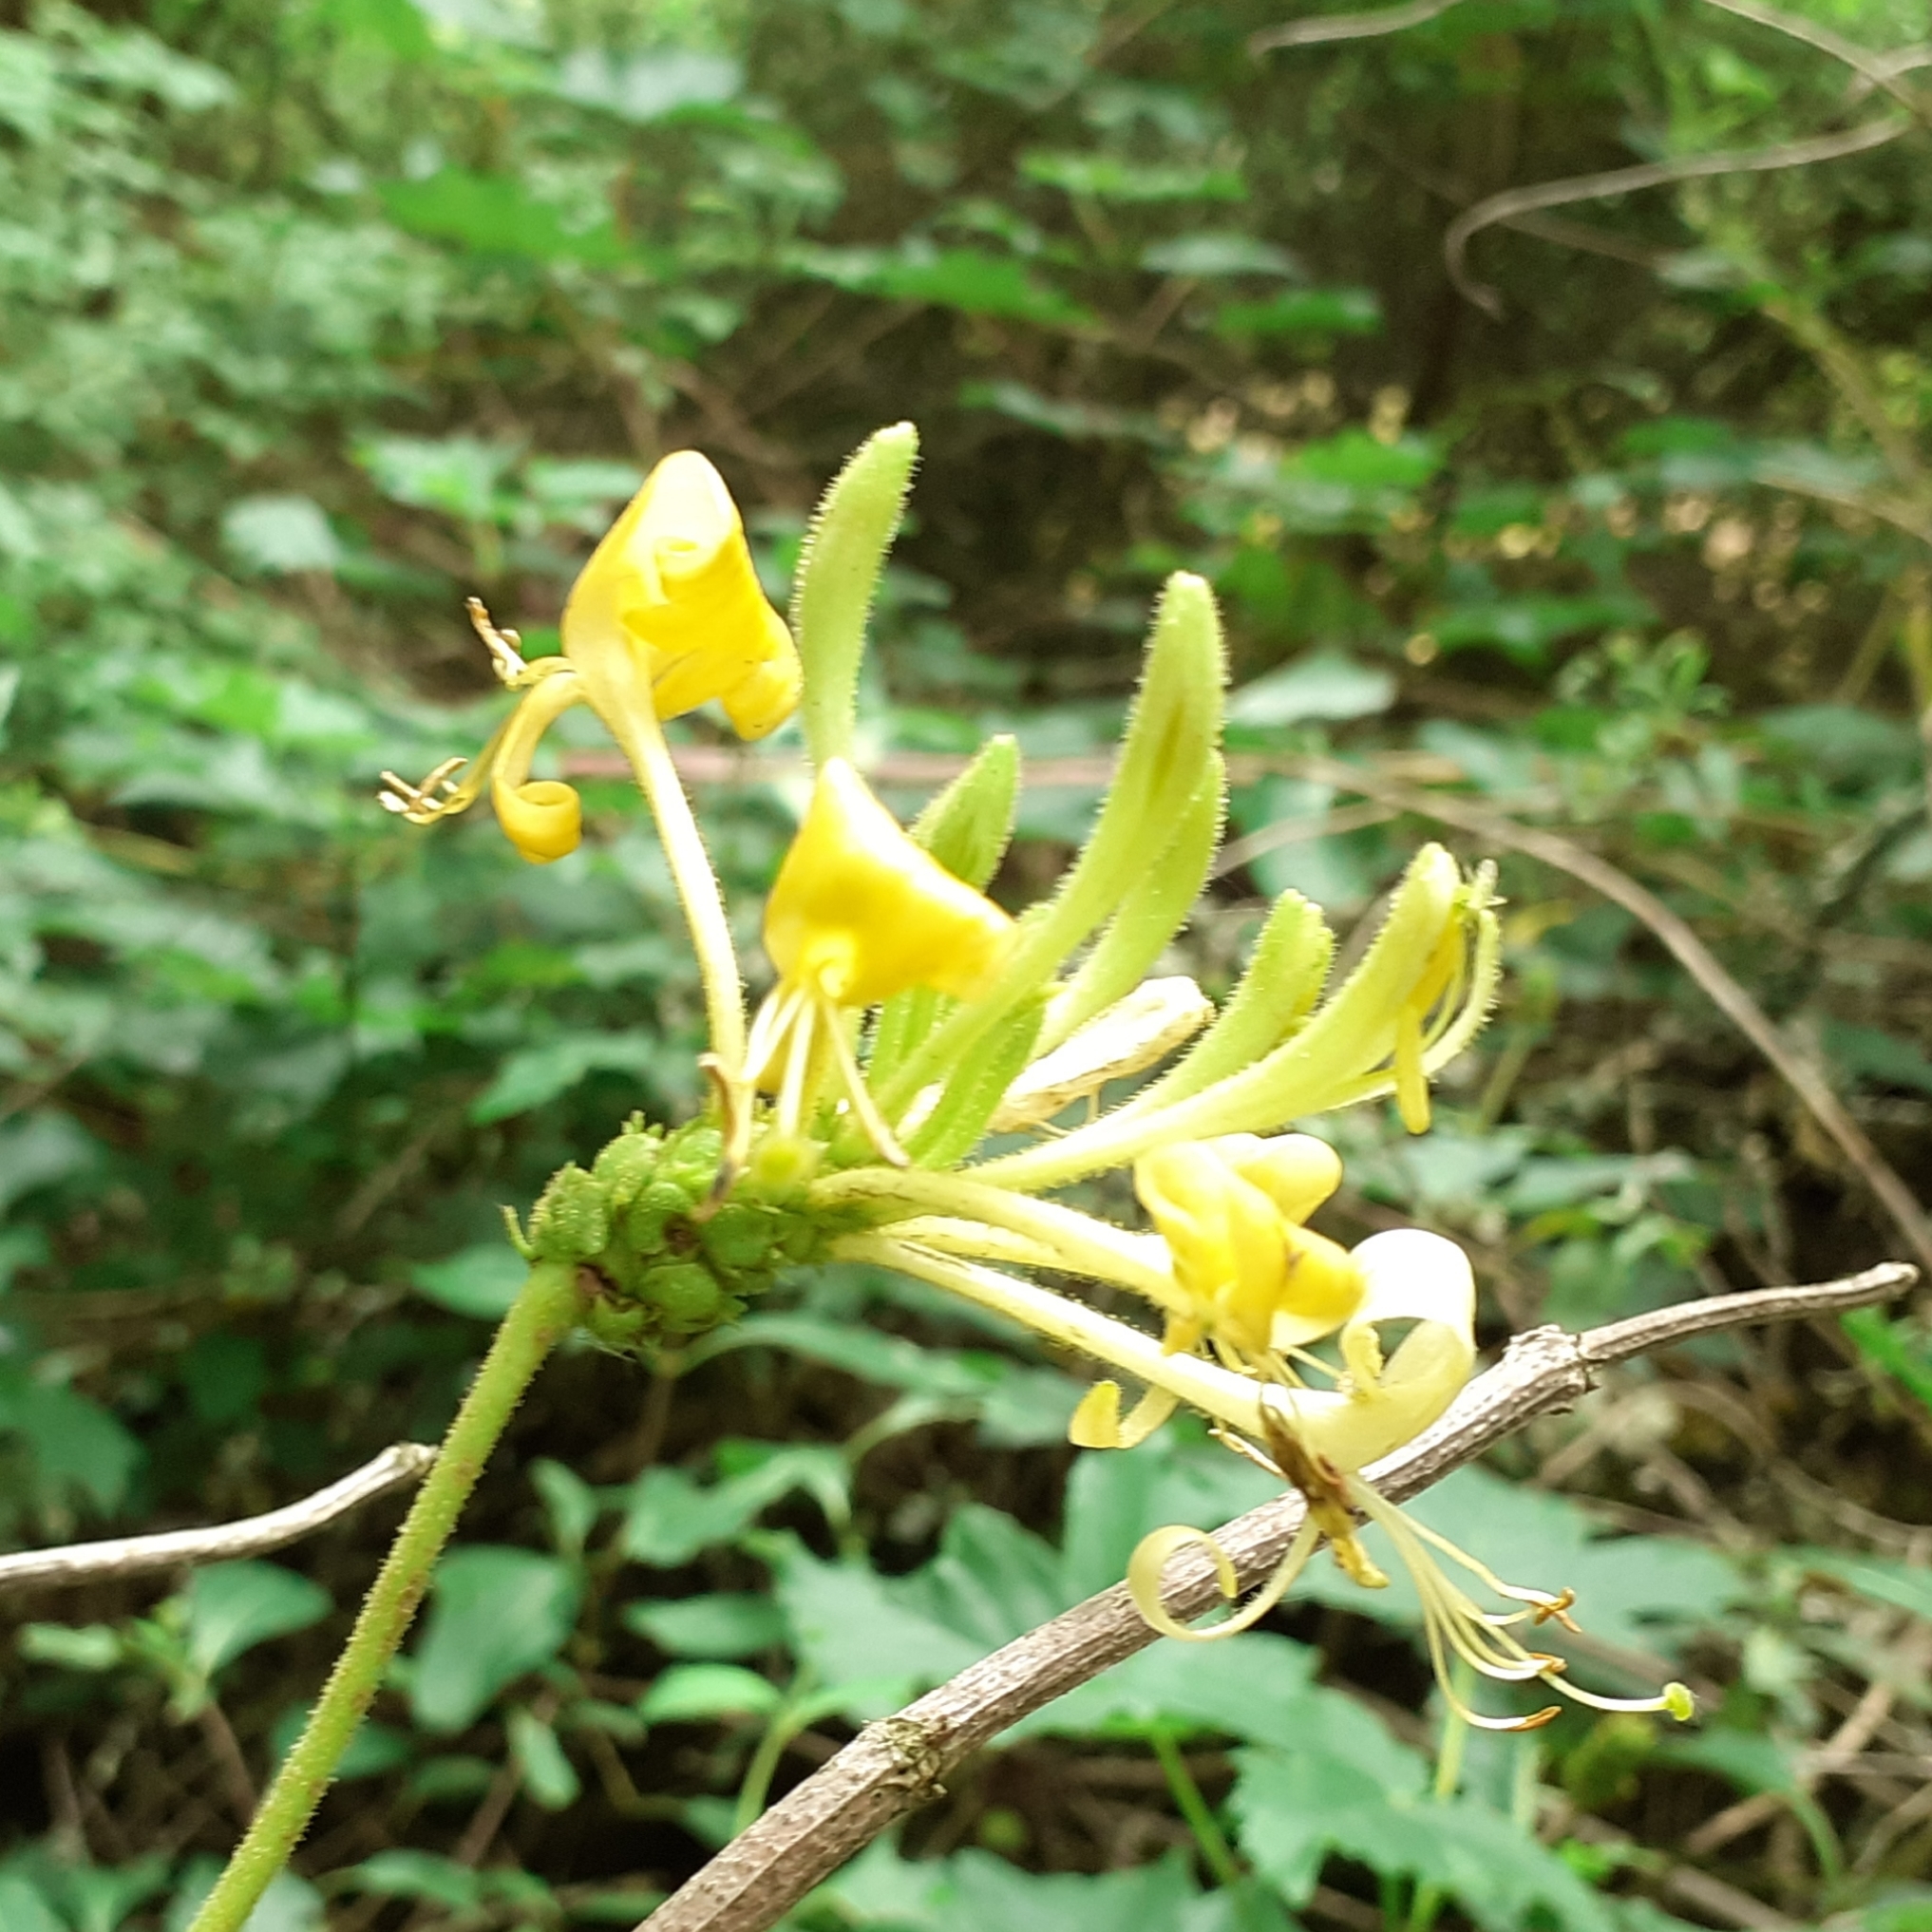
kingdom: Plantae
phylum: Tracheophyta
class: Magnoliopsida
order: Dipsacales
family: Caprifoliaceae
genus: Lonicera
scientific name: Lonicera periclymenum
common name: European honeysuckle
